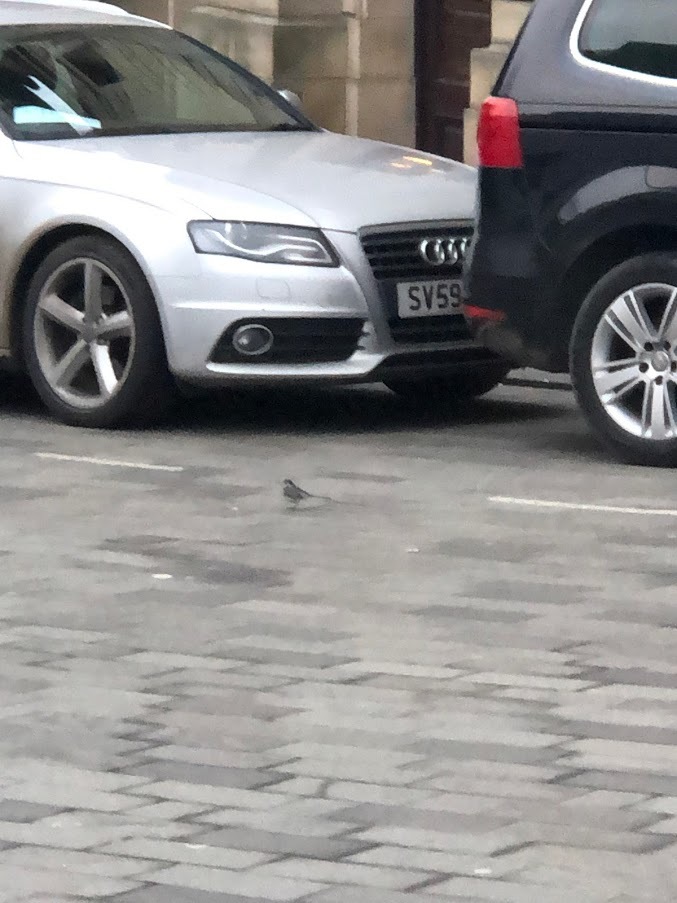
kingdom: Animalia
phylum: Chordata
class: Aves
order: Passeriformes
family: Motacillidae
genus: Motacilla
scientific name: Motacilla alba
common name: White wagtail
